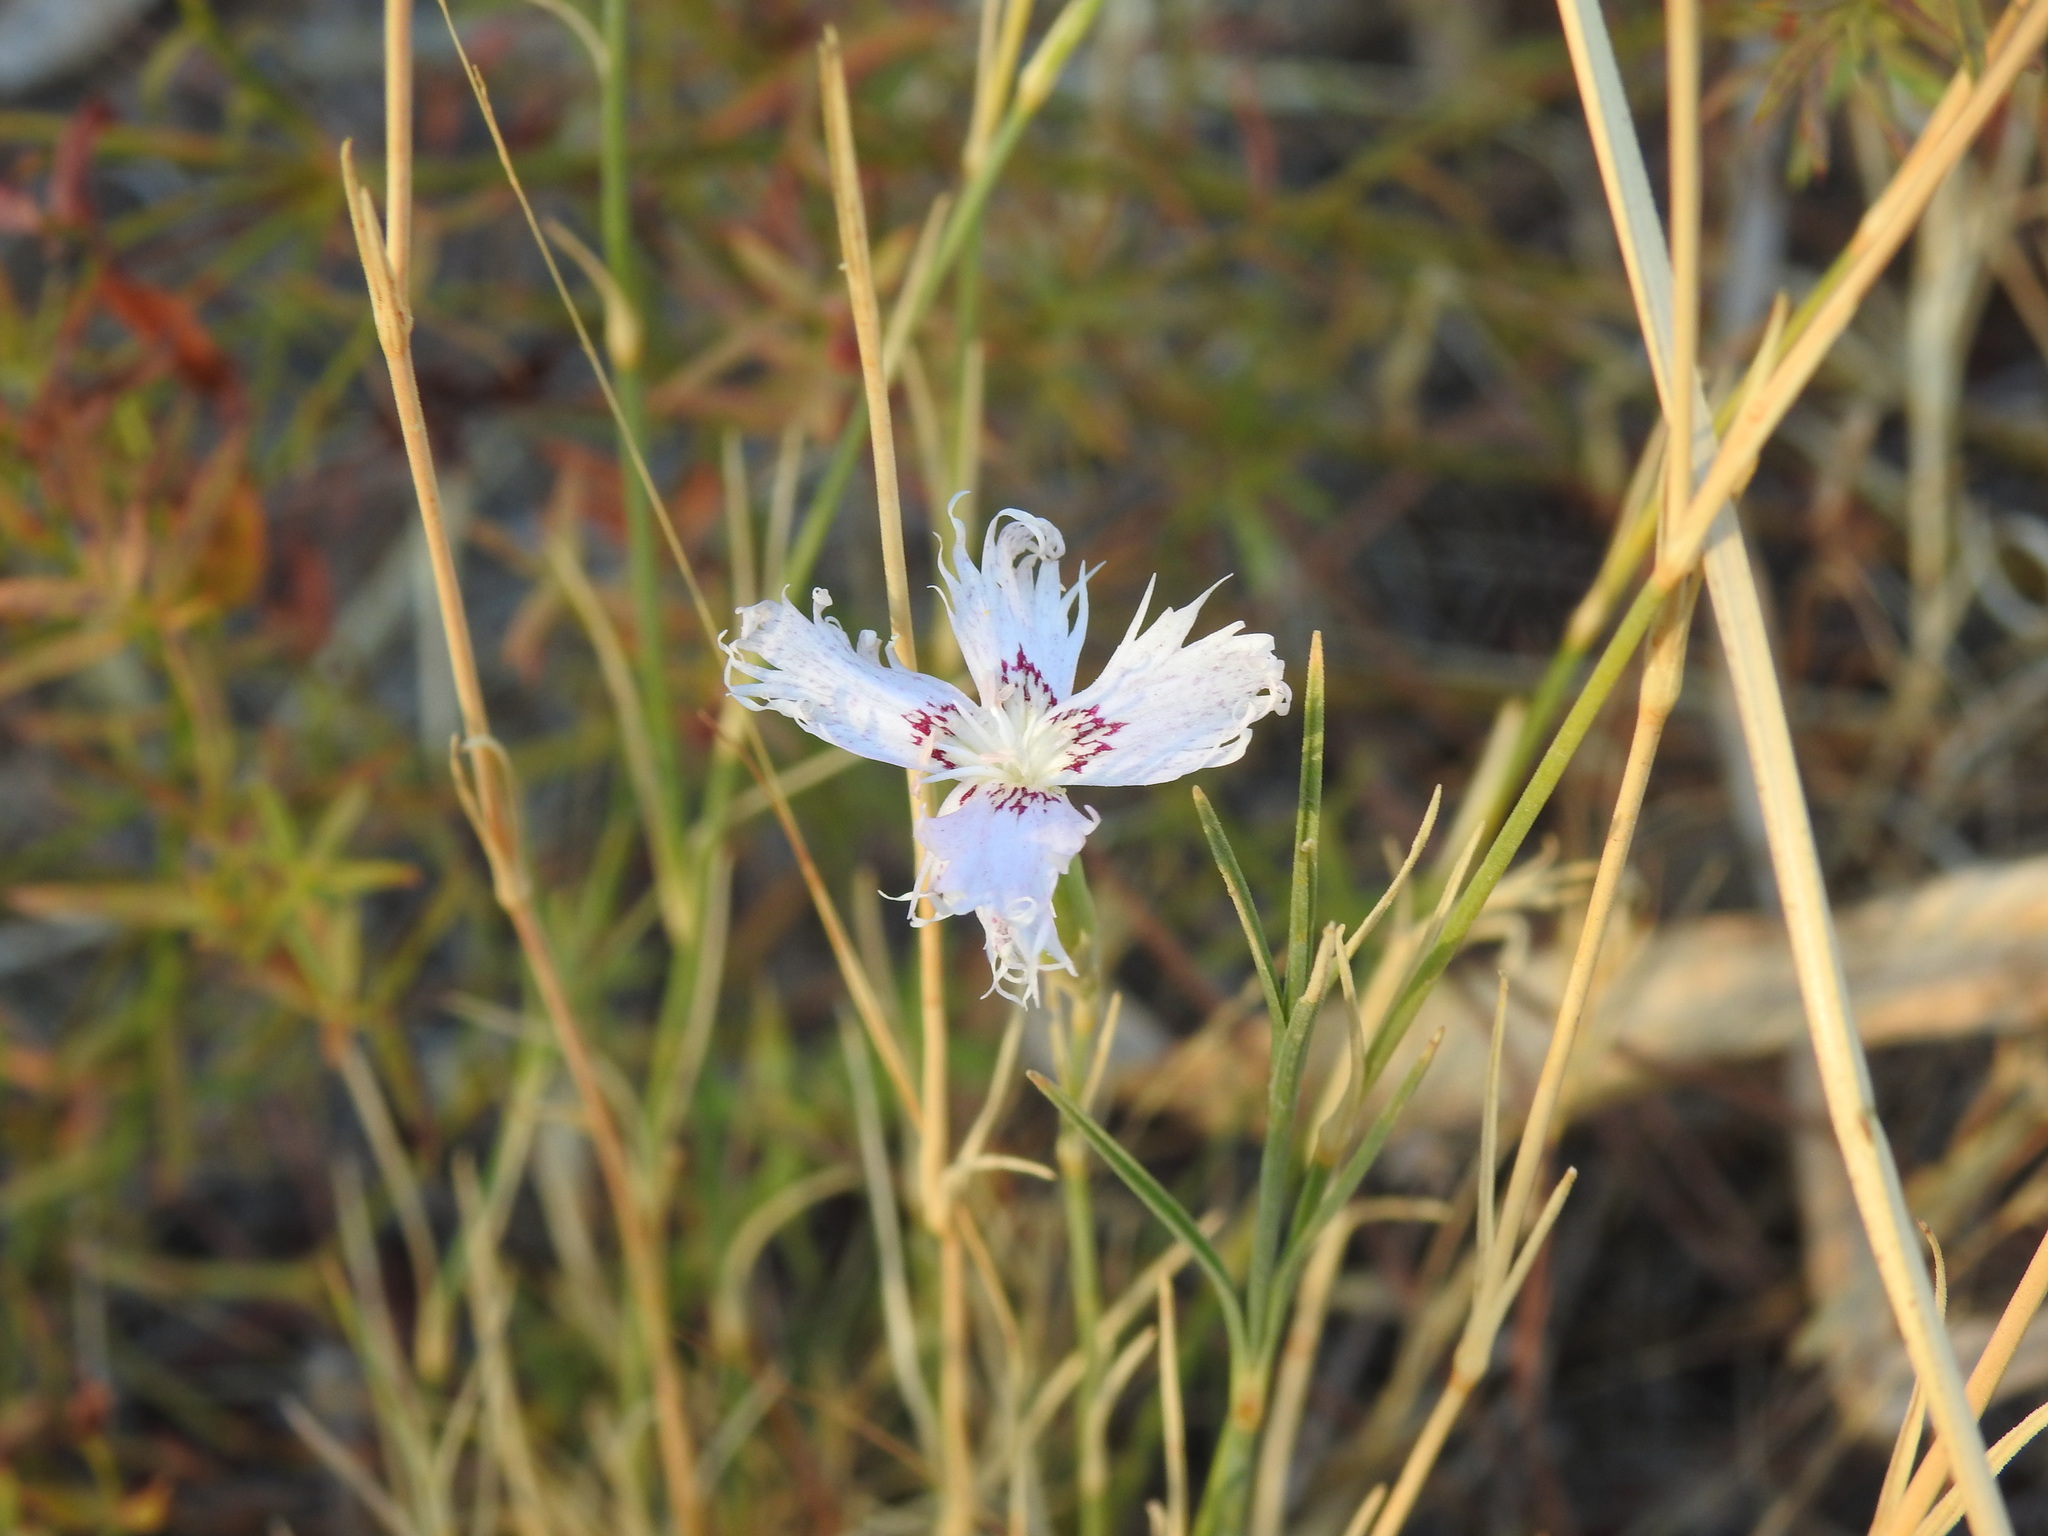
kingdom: Plantae
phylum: Tracheophyta
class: Magnoliopsida
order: Caryophyllales
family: Caryophyllaceae
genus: Dianthus
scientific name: Dianthus broteri
